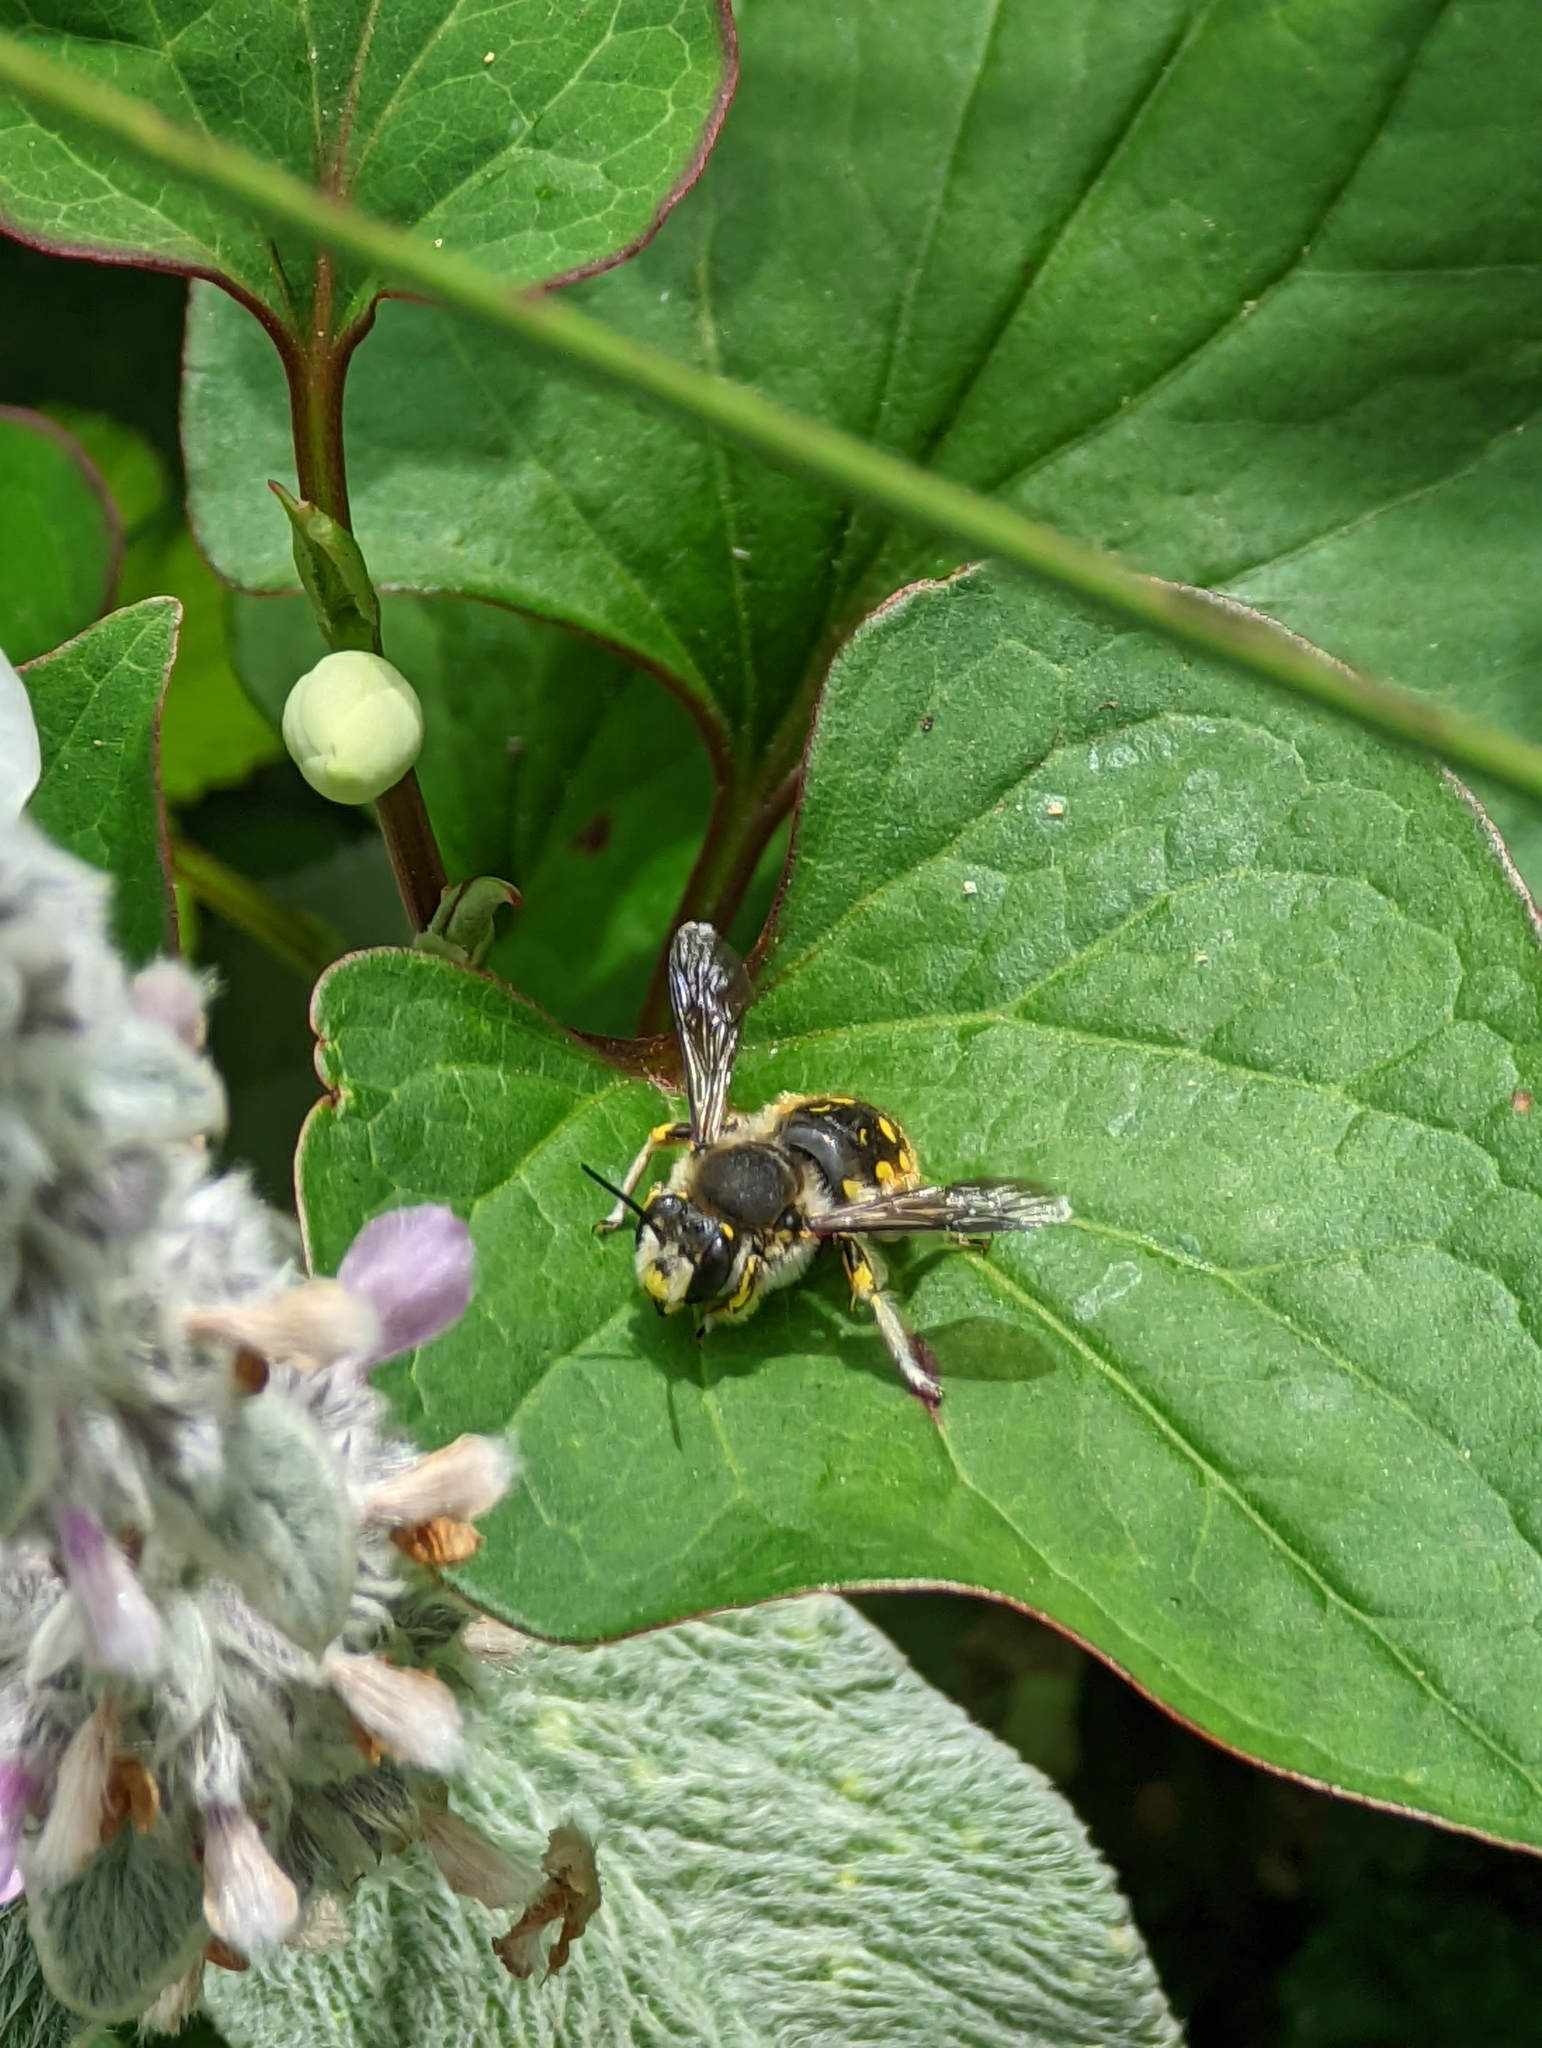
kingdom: Animalia
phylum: Arthropoda
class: Insecta
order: Hymenoptera
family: Megachilidae
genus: Anthidium
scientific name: Anthidium manicatum
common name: Wool carder bee
